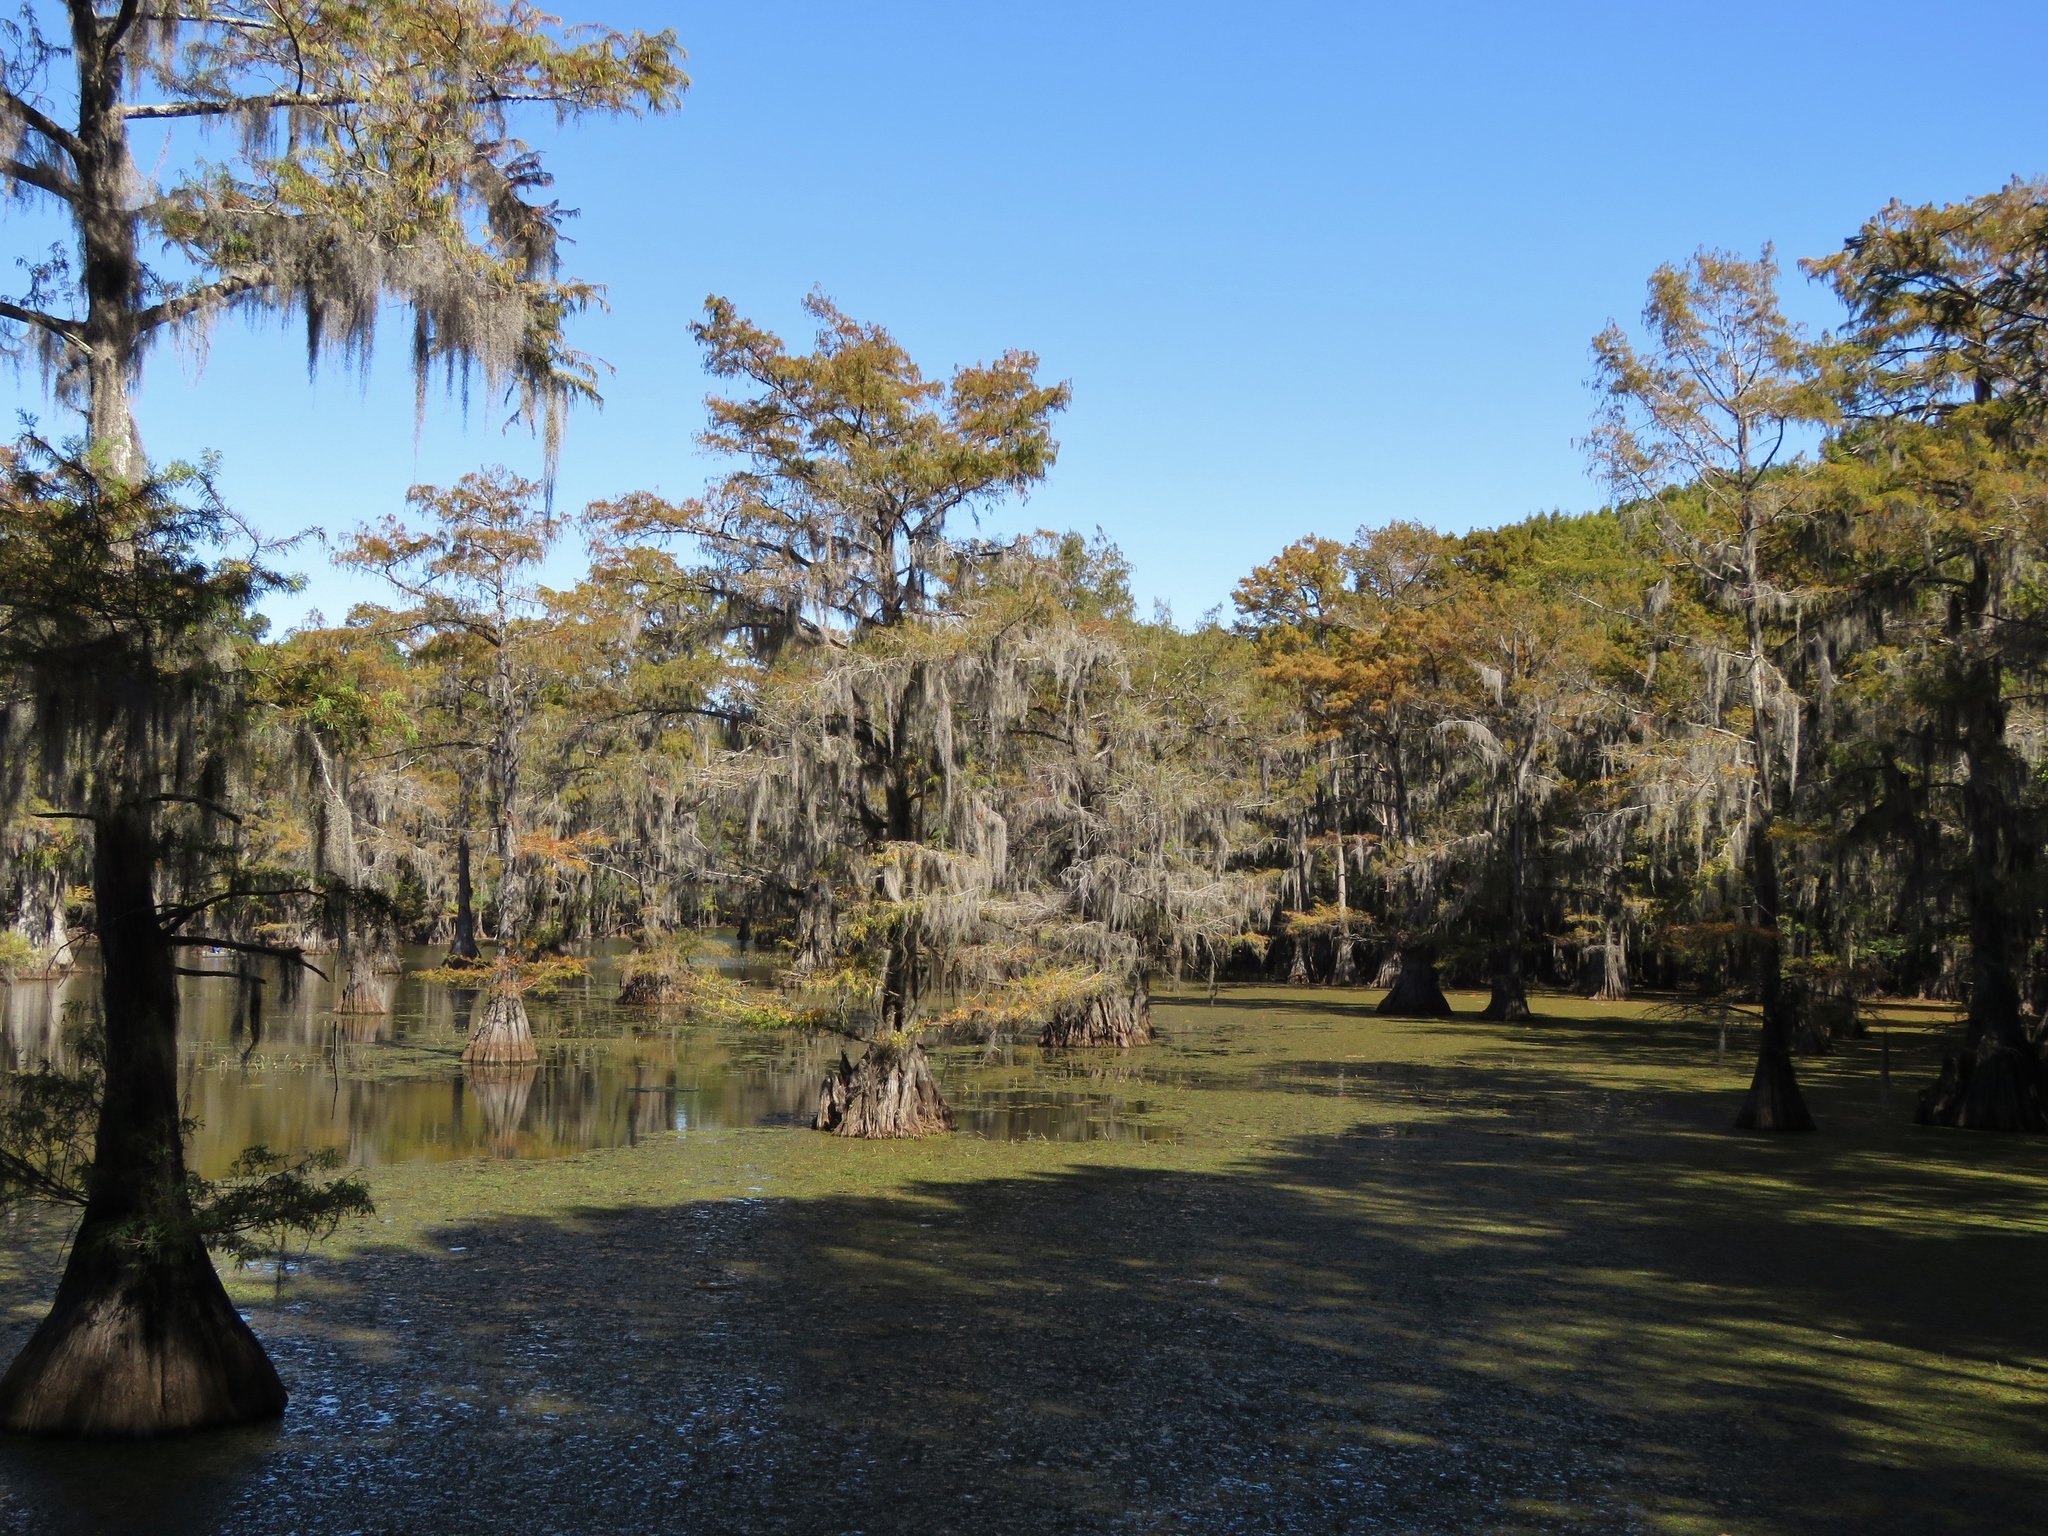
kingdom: Plantae
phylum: Tracheophyta
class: Pinopsida
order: Pinales
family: Cupressaceae
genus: Taxodium
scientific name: Taxodium distichum
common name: Bald cypress
